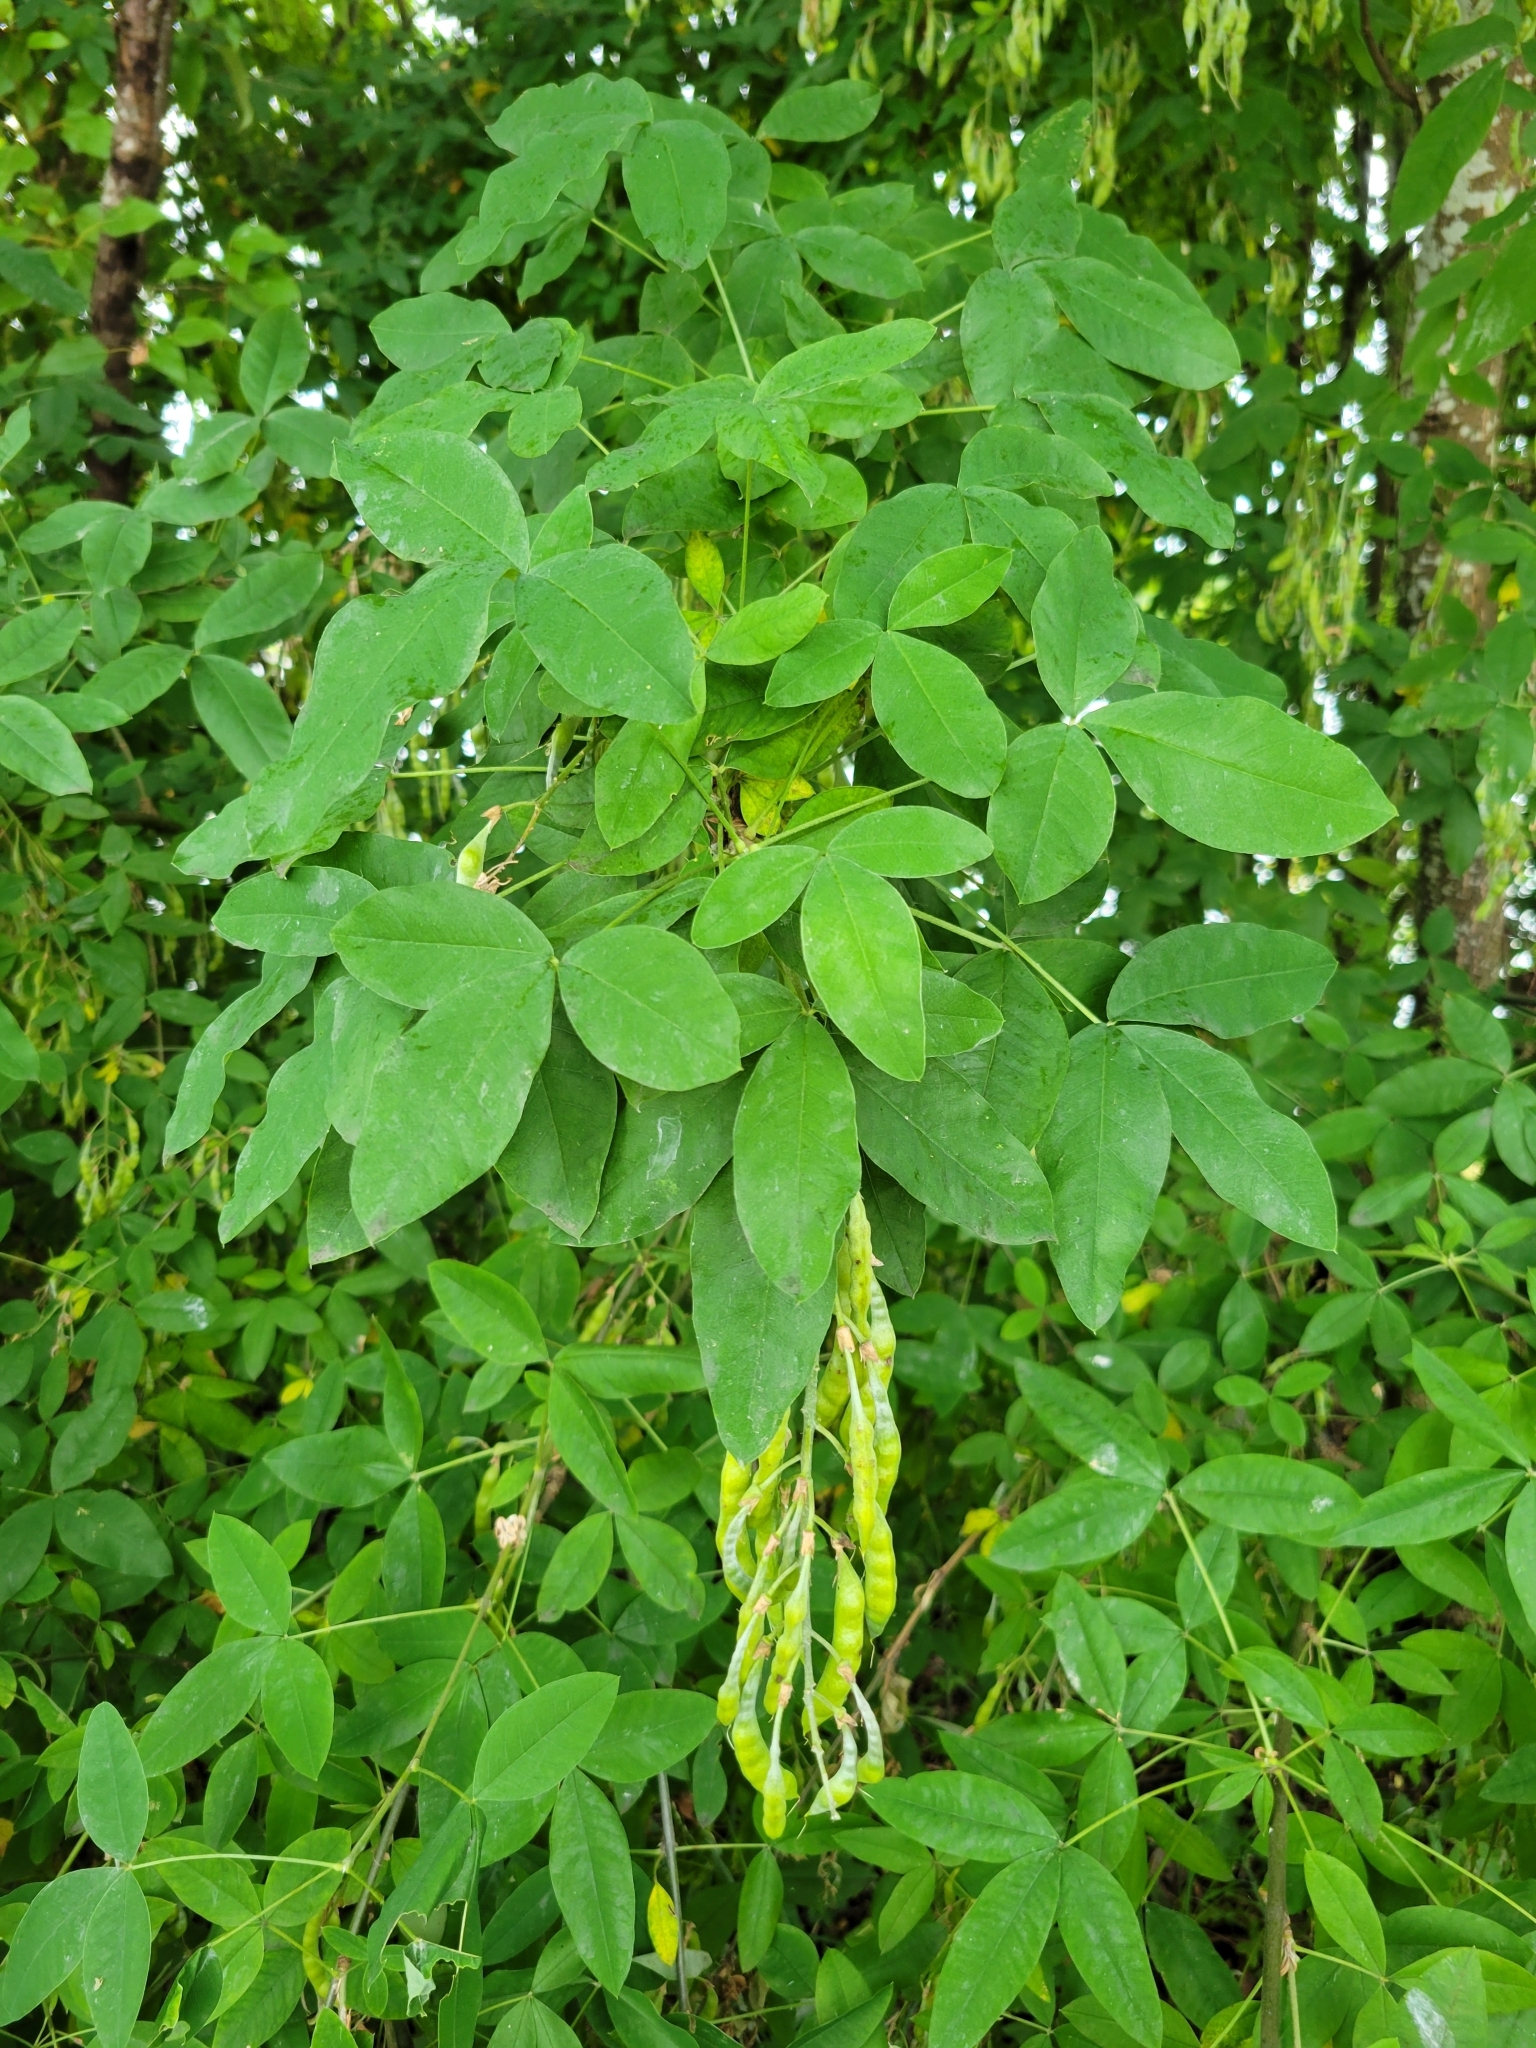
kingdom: Plantae
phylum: Tracheophyta
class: Magnoliopsida
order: Fabales
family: Fabaceae
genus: Laburnum
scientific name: Laburnum anagyroides
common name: Laburnum
